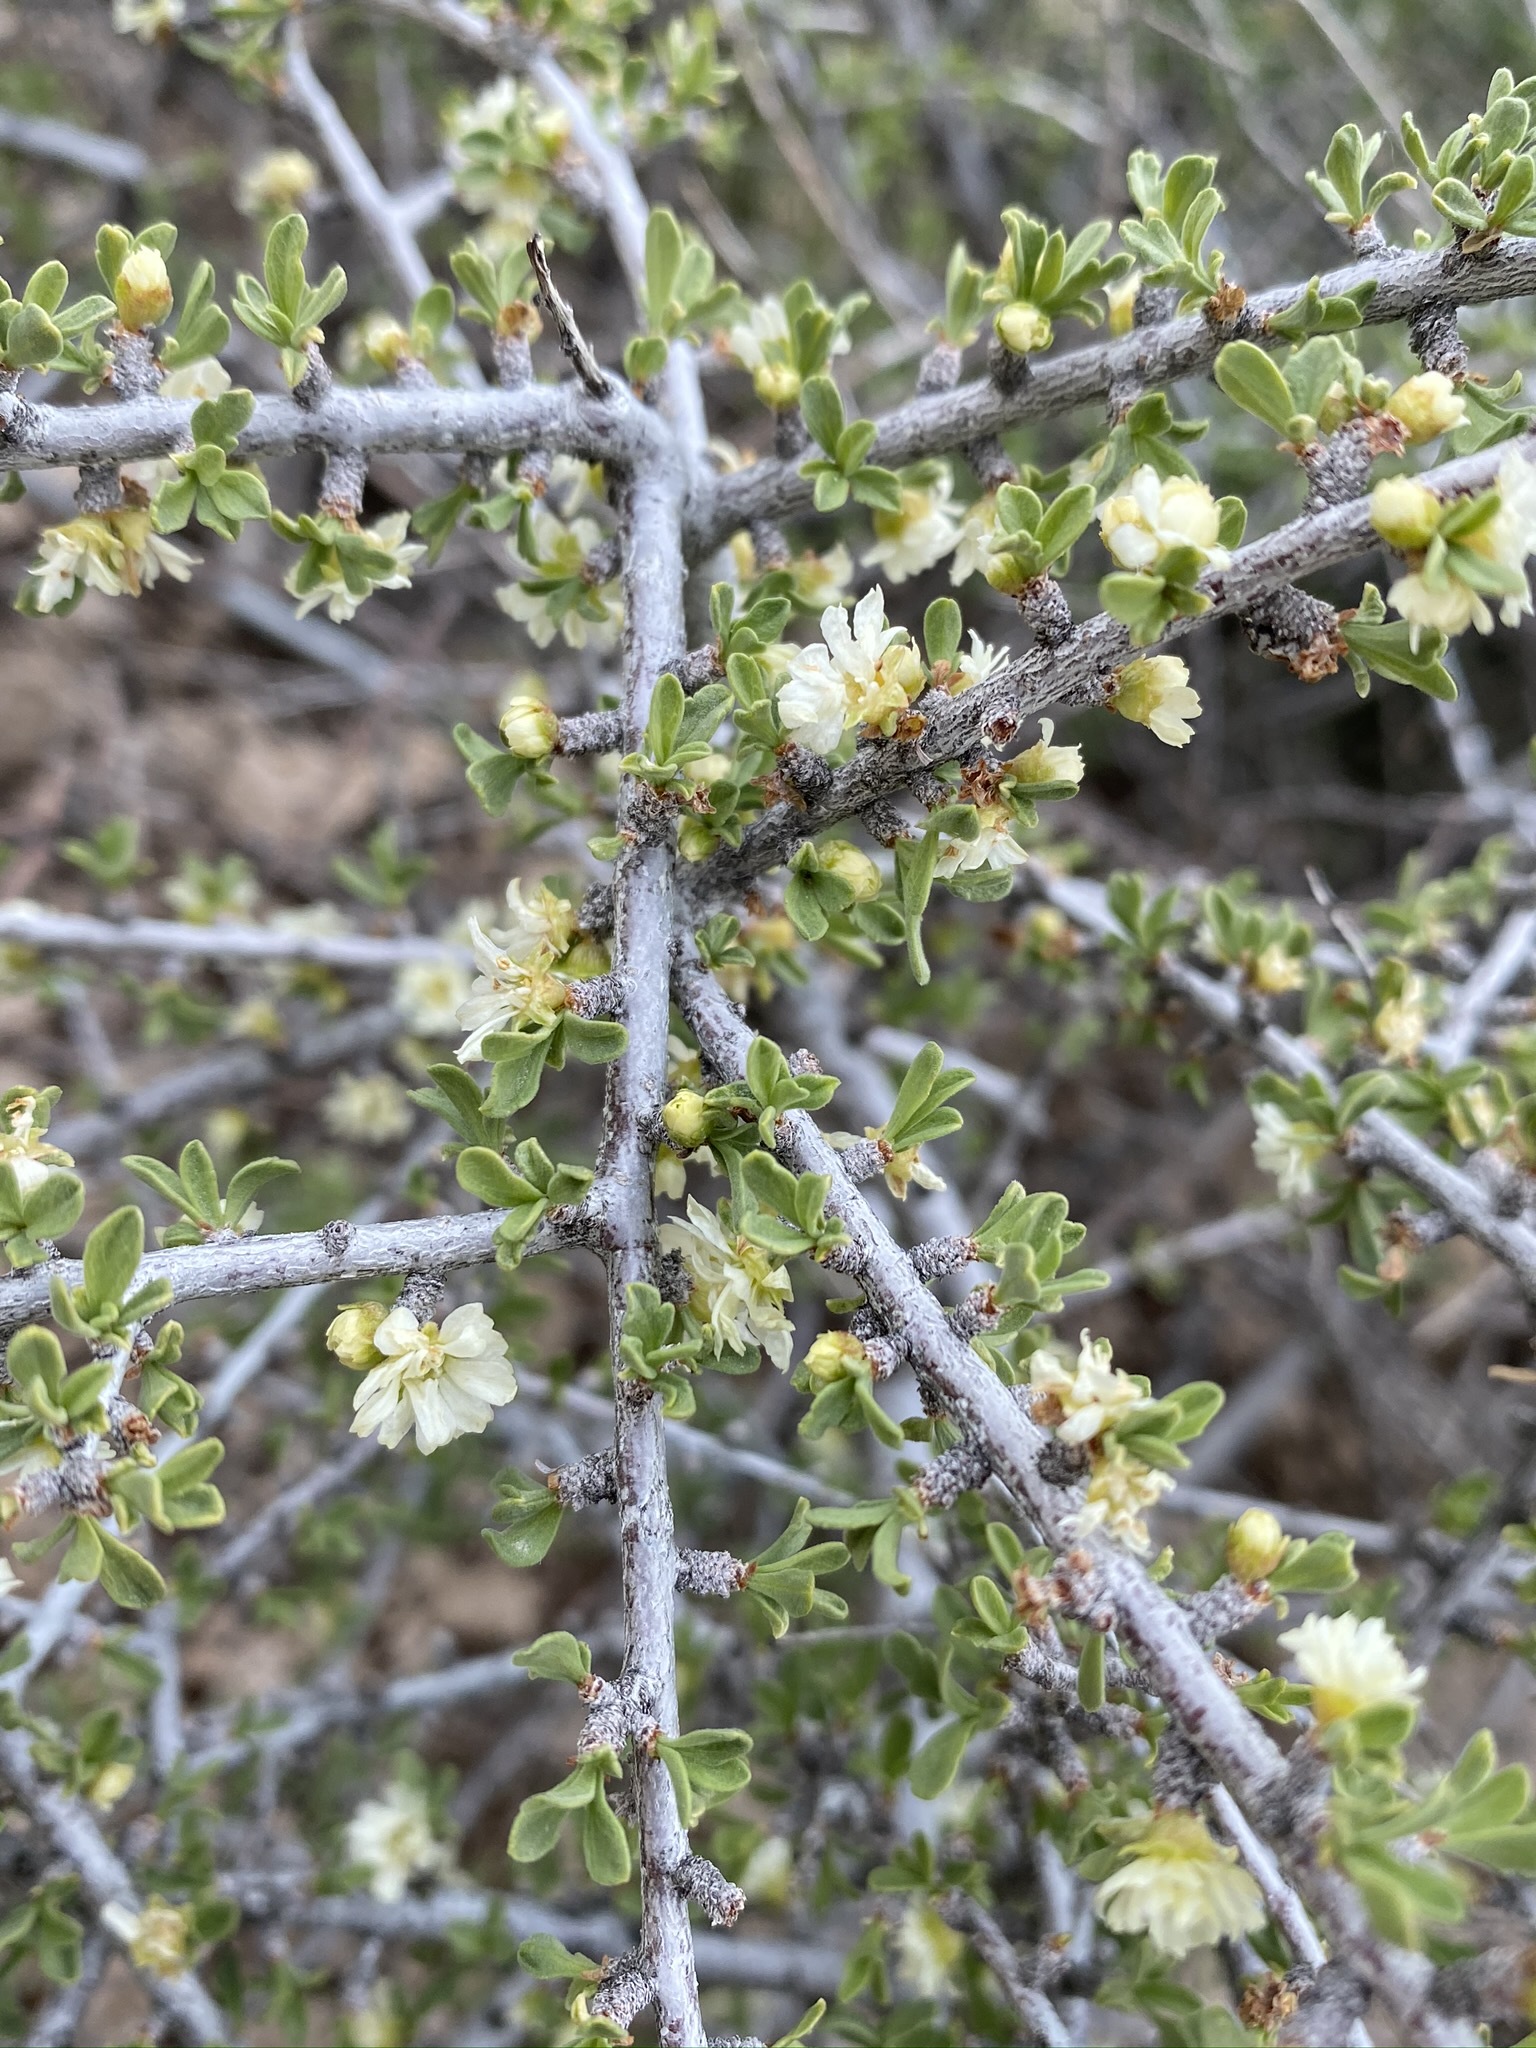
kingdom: Plantae
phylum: Tracheophyta
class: Magnoliopsida
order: Rosales
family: Rosaceae
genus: Prunus
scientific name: Prunus fasciculata
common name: Desert almond
